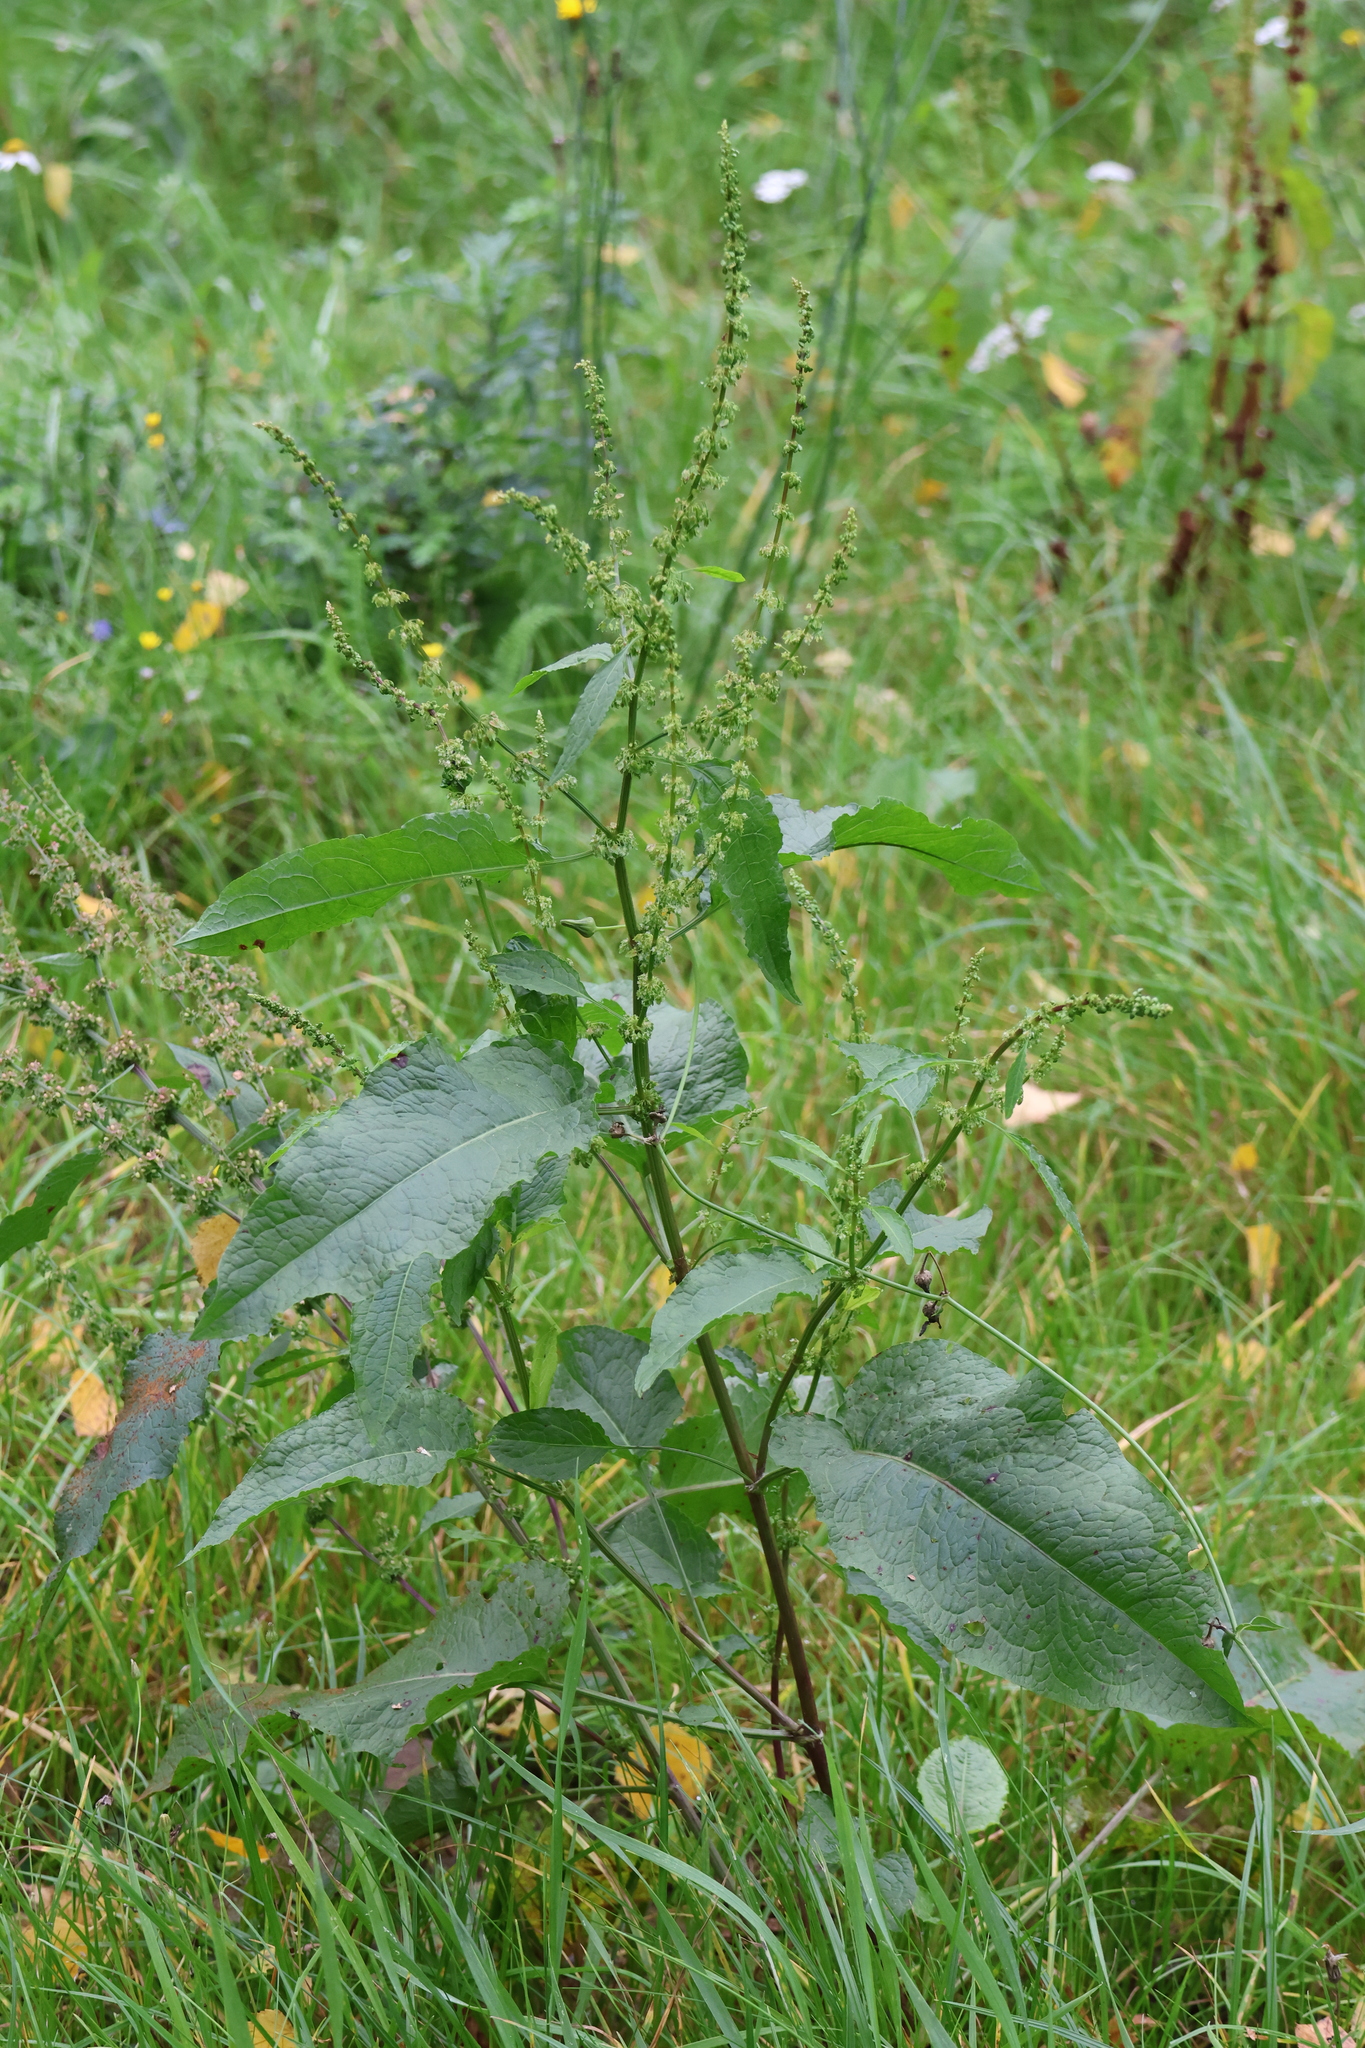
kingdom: Plantae
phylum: Tracheophyta
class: Magnoliopsida
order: Caryophyllales
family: Polygonaceae
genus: Rumex
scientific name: Rumex obtusifolius
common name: Bitter dock
